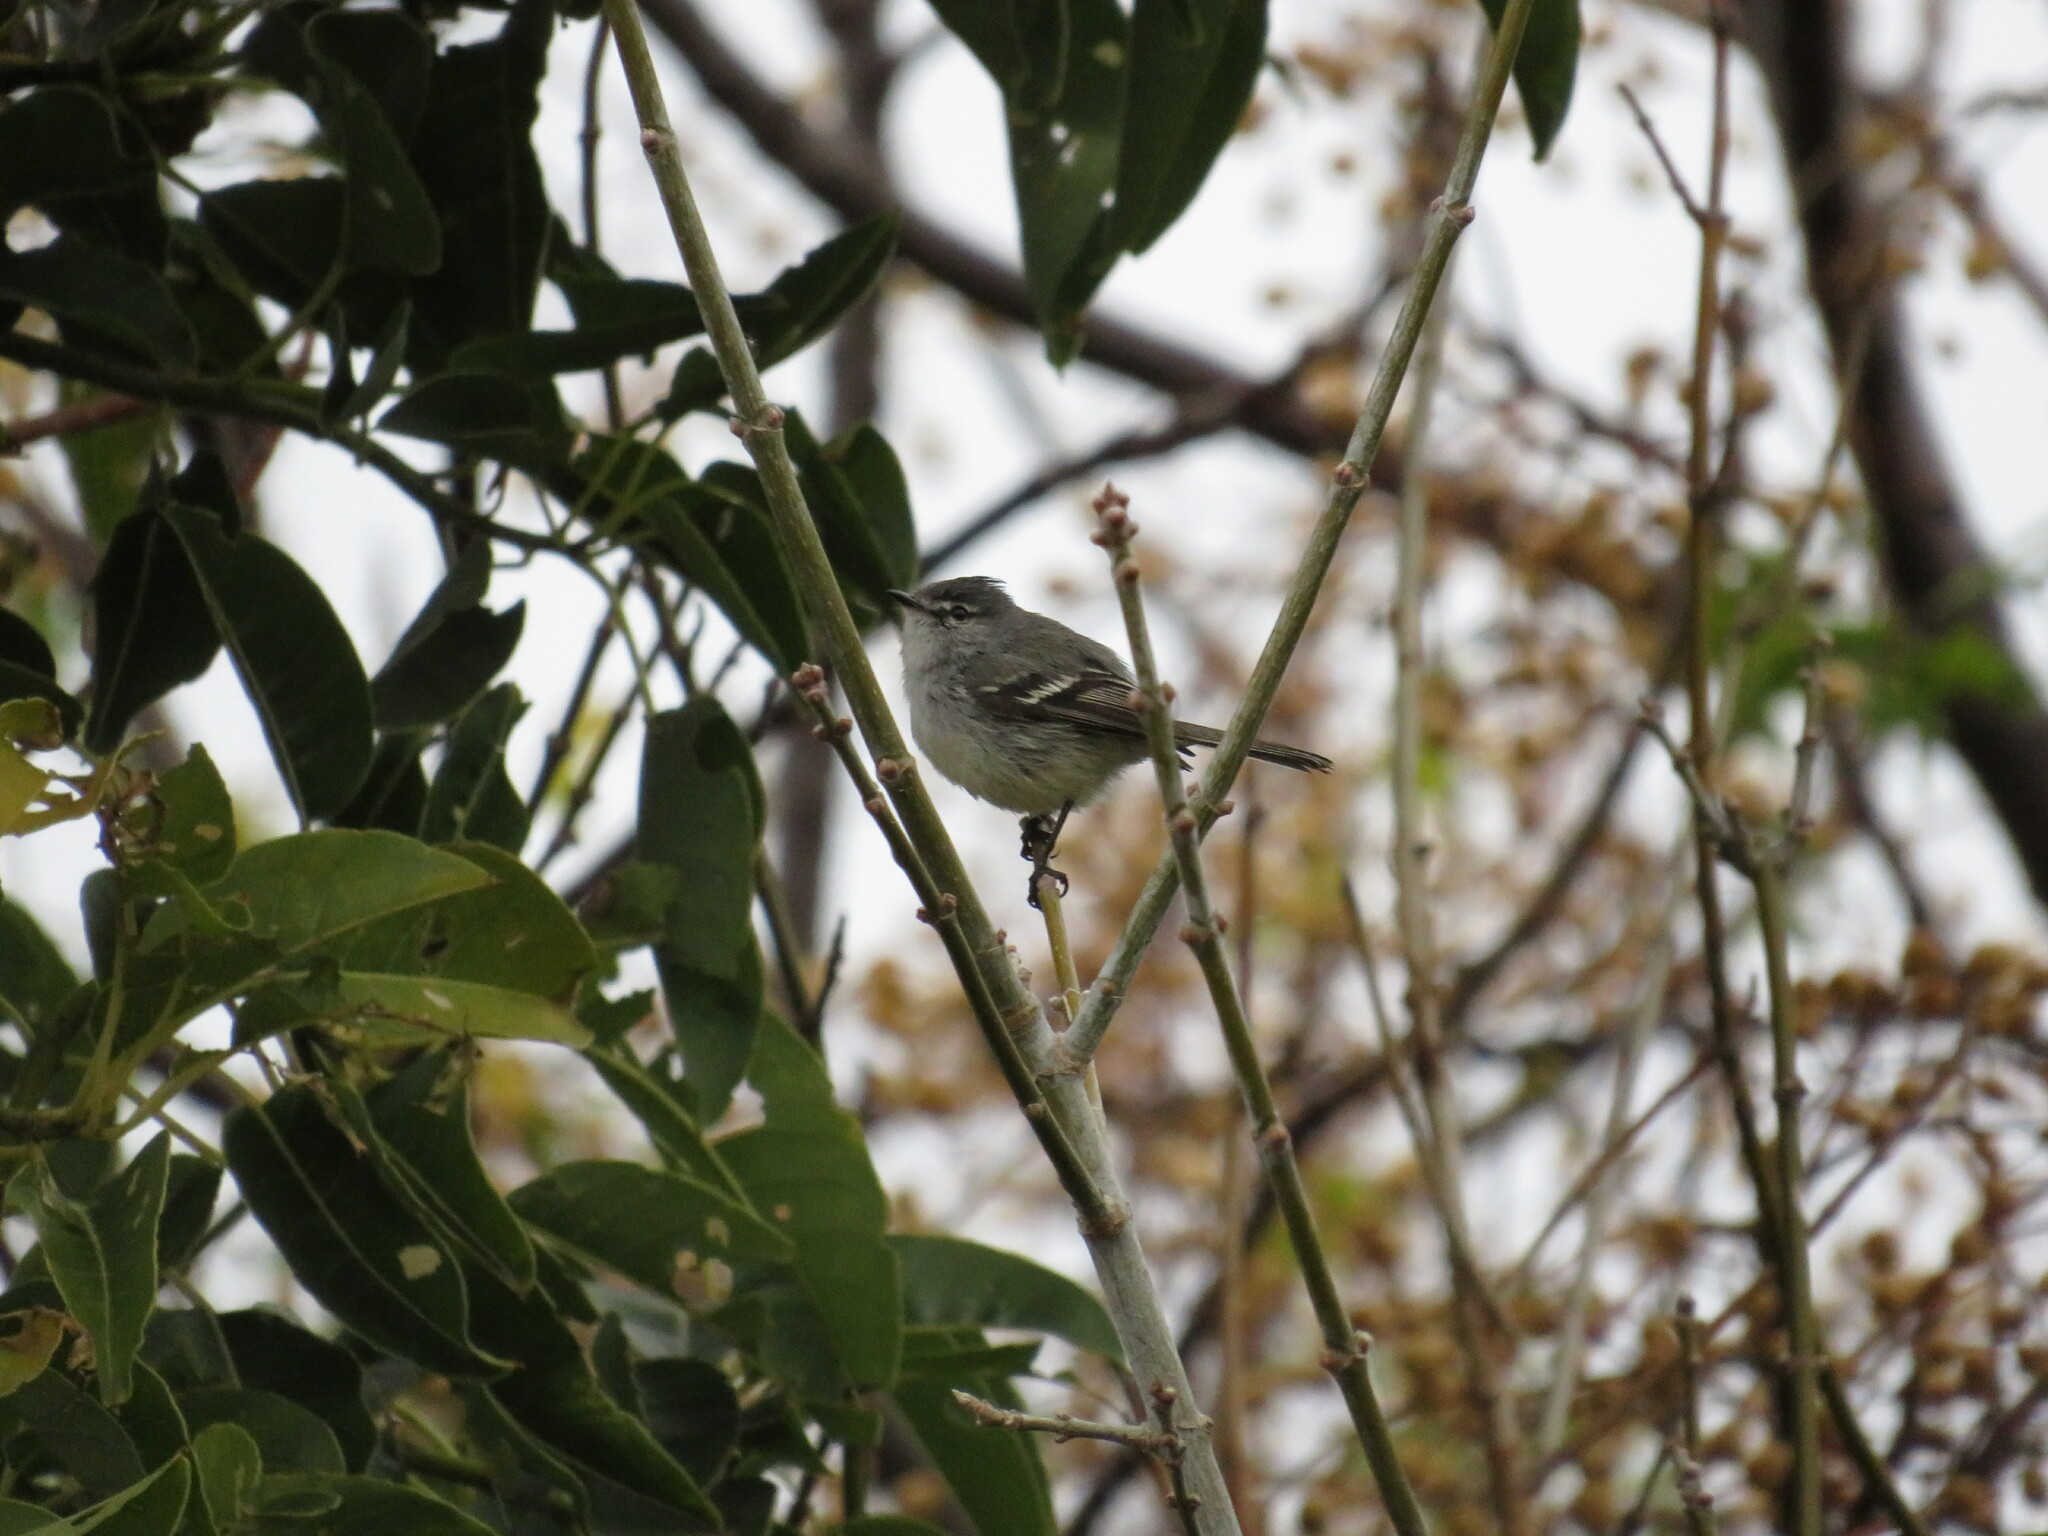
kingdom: Animalia
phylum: Chordata
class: Aves
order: Passeriformes
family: Tyrannidae
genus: Serpophaga
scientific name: Serpophaga subcristata
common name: White-crested tyrannulet
